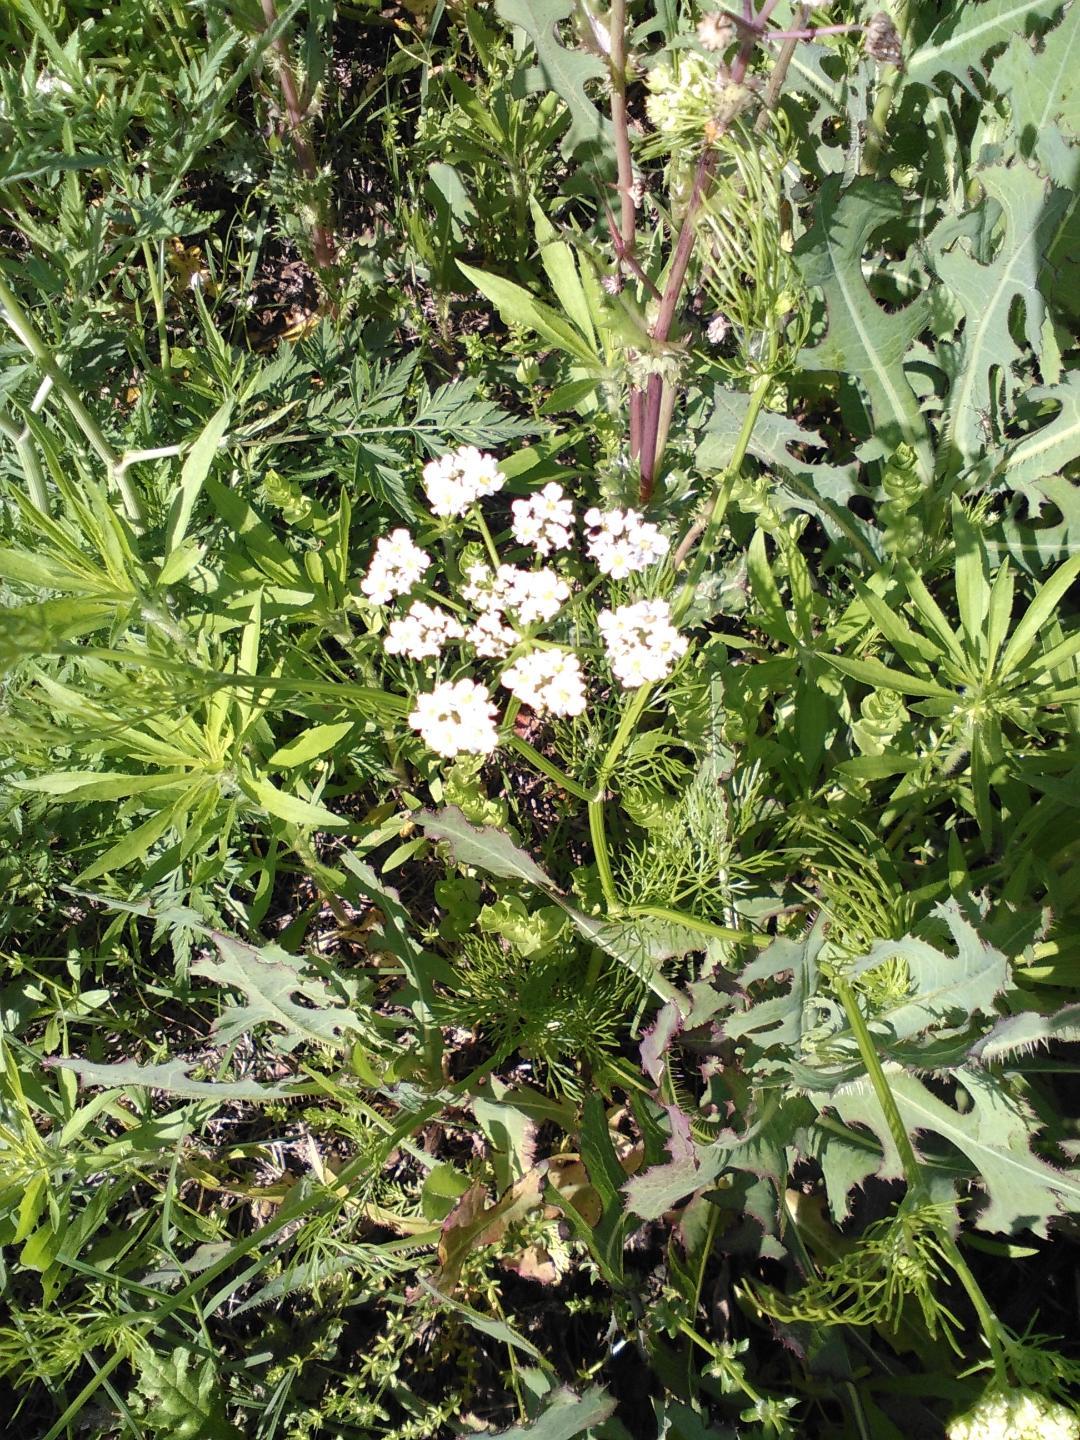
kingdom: Plantae
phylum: Tracheophyta
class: Magnoliopsida
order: Apiales
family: Apiaceae
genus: Atrema
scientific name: Atrema americanum
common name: Prairie-bishop
